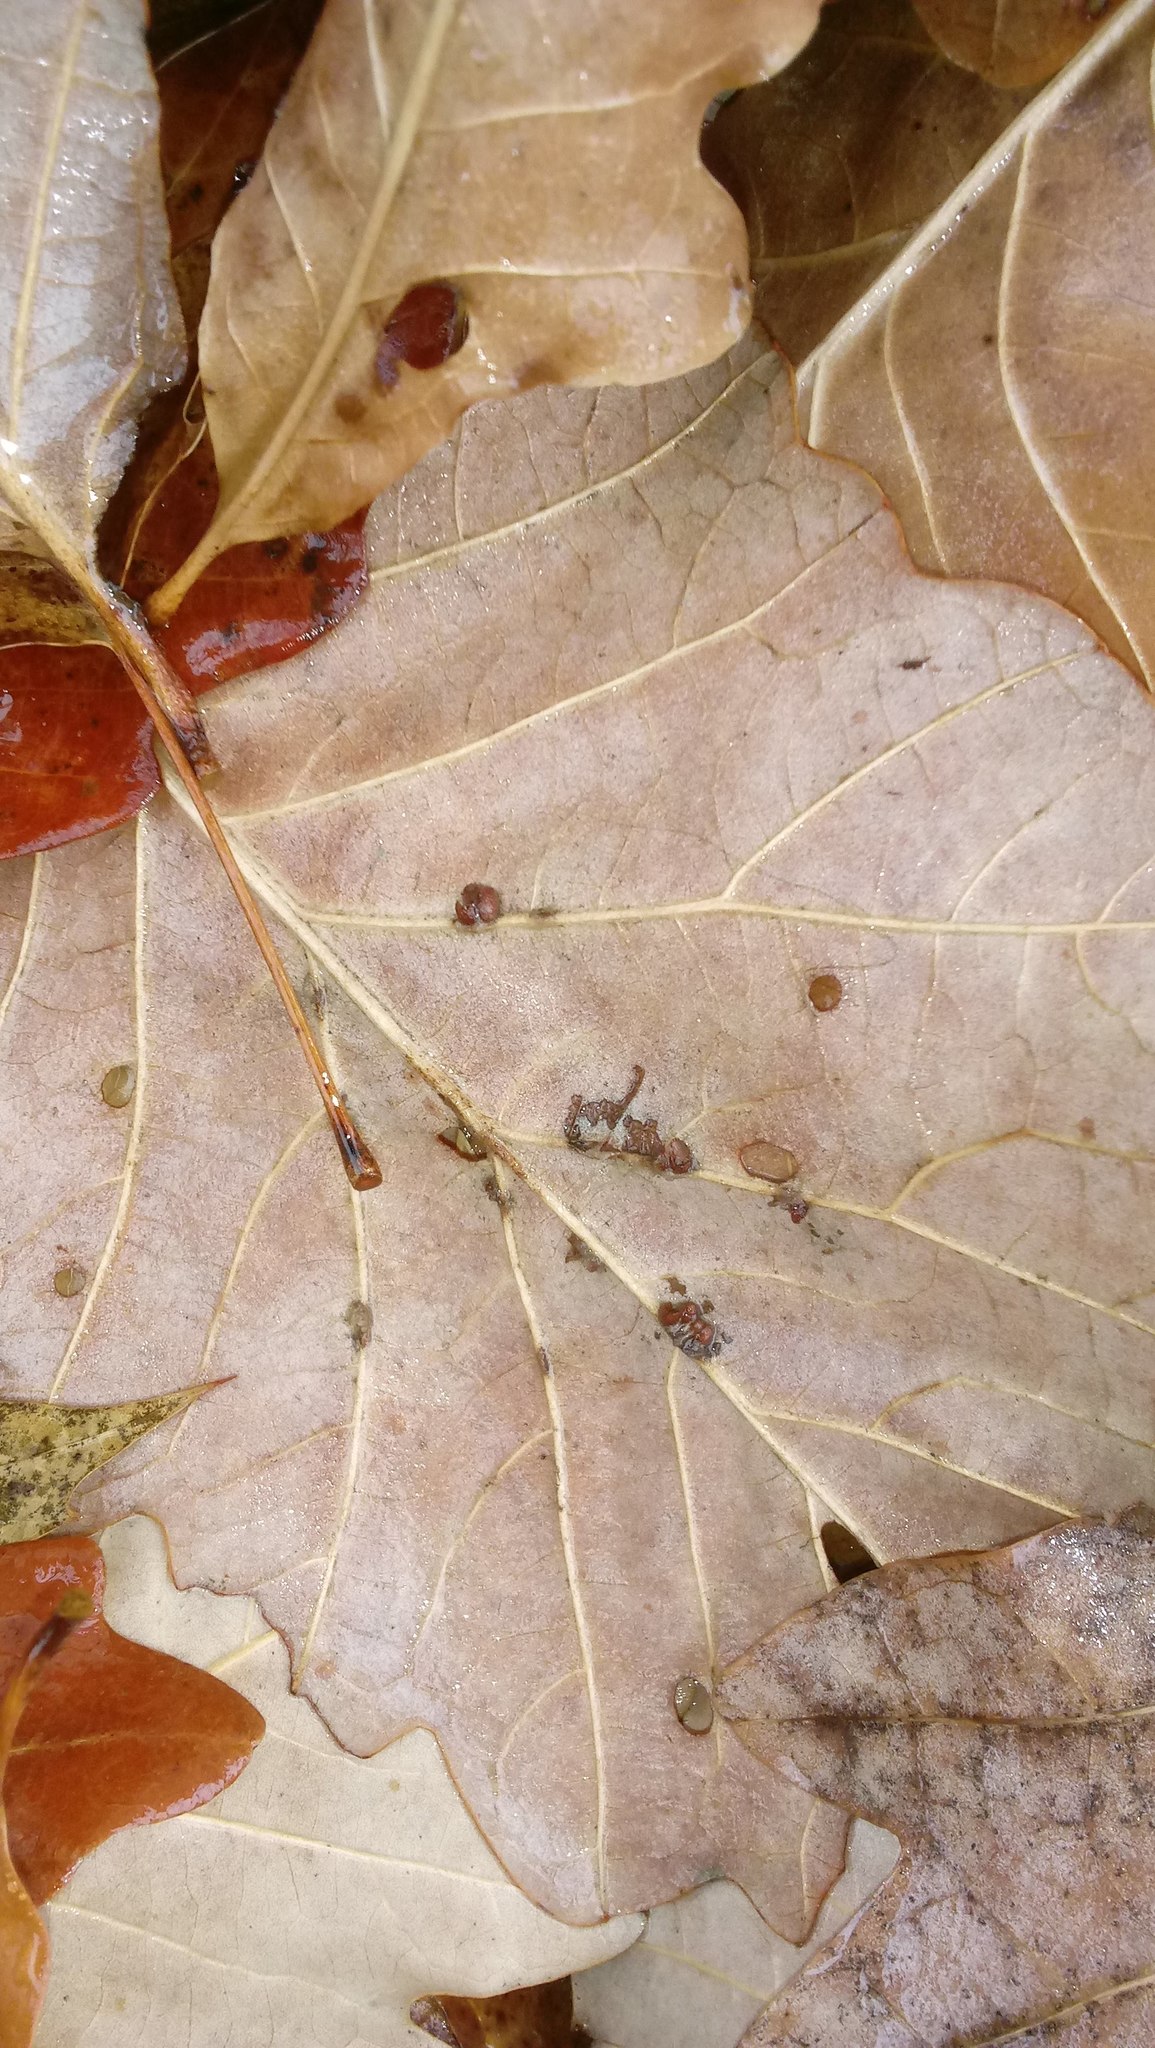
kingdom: Animalia
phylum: Arthropoda
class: Insecta
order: Hymenoptera
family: Cynipidae
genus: Andricus
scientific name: Andricus Druon ignotum
